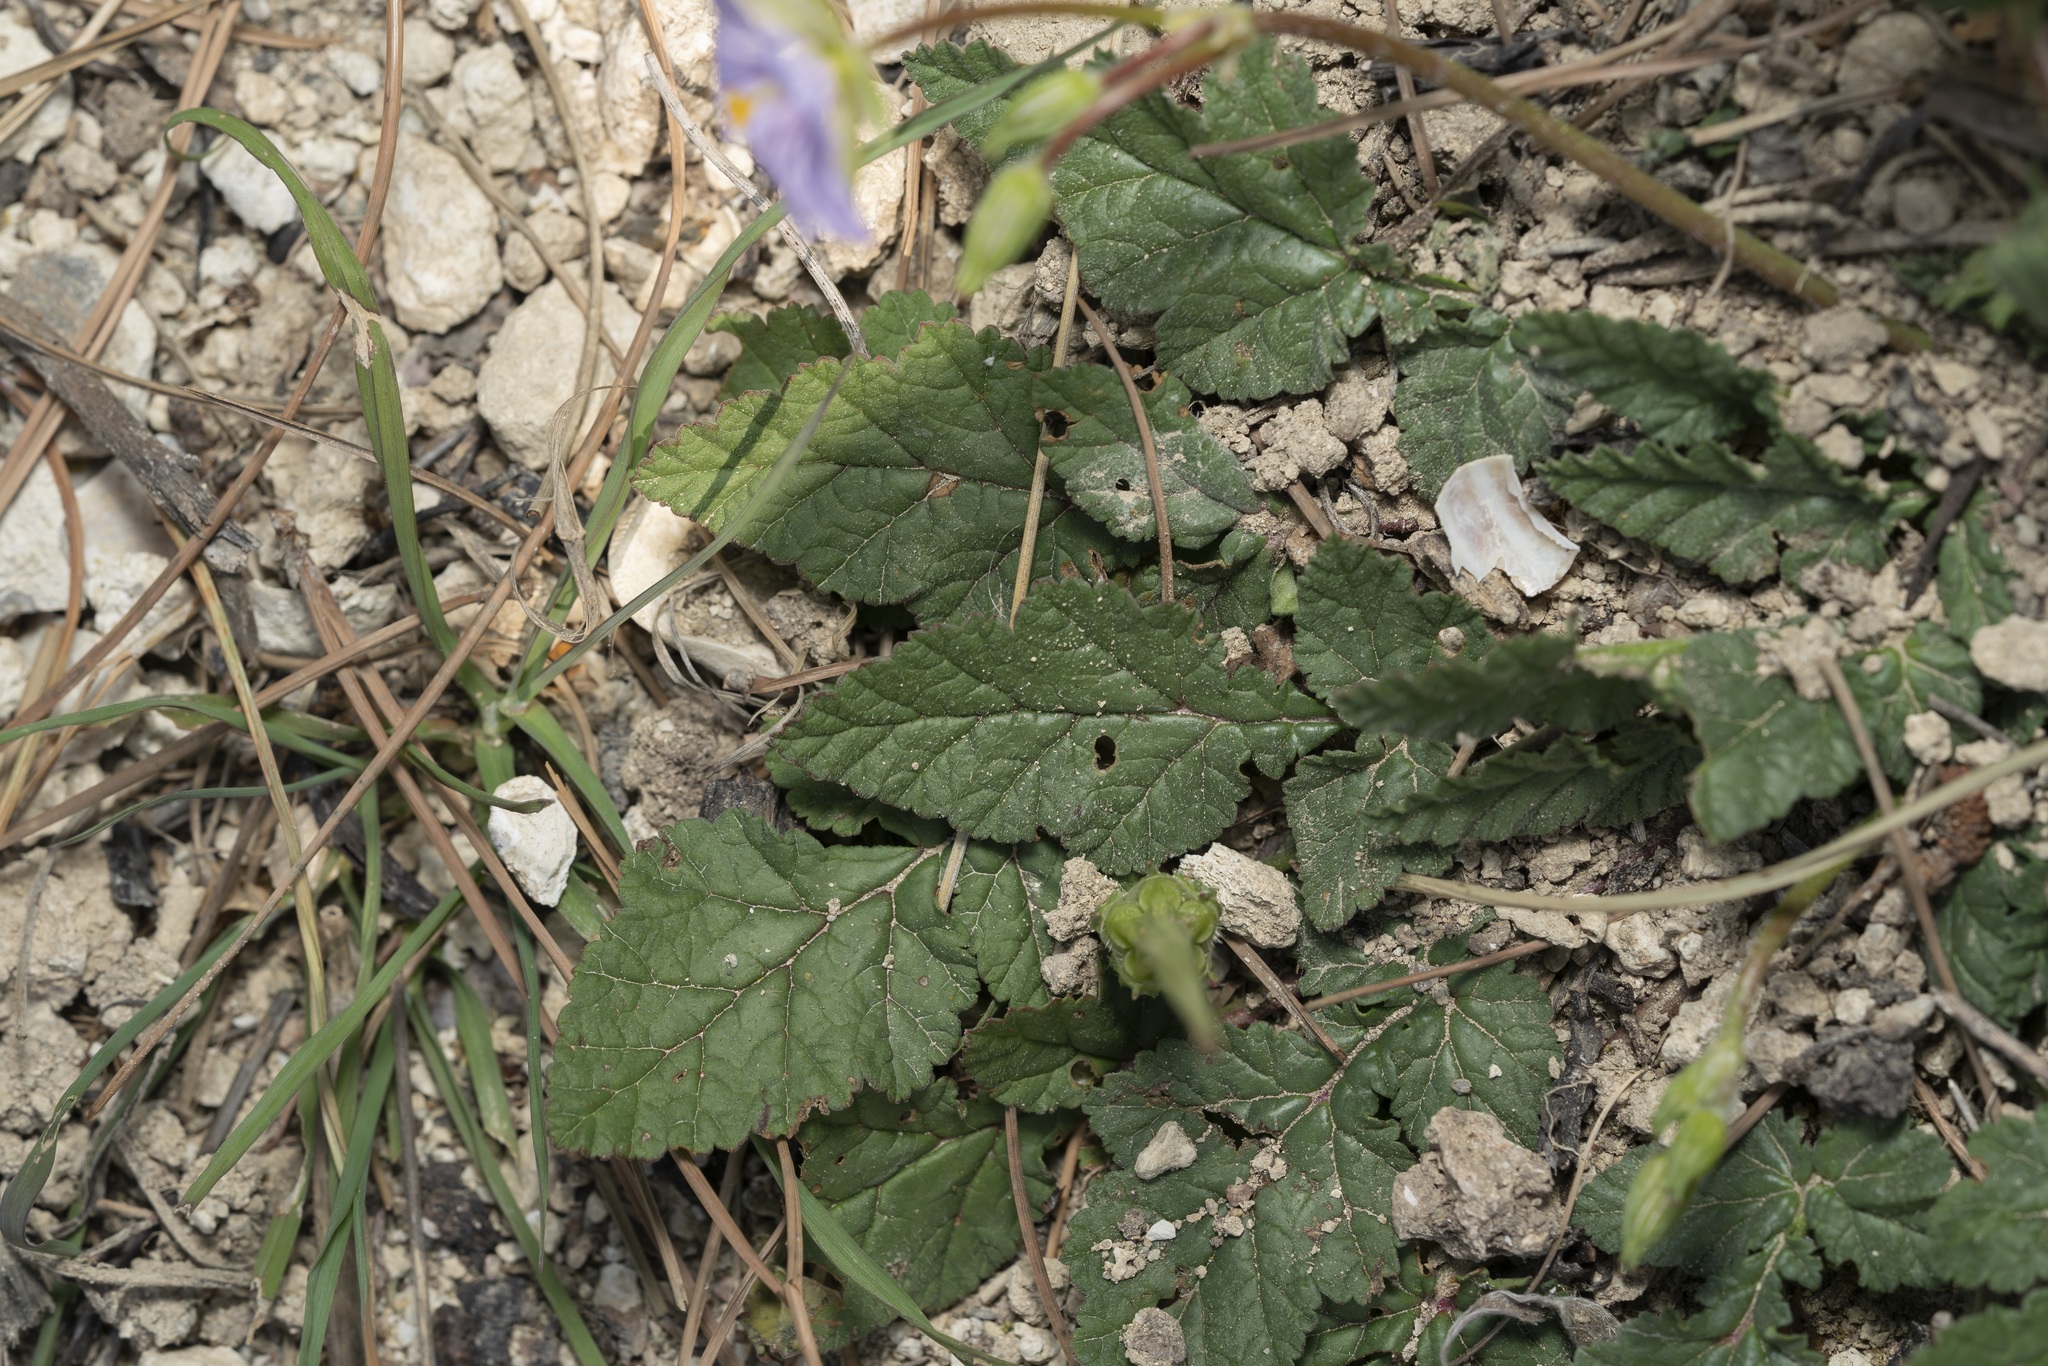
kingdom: Plantae
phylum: Tracheophyta
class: Magnoliopsida
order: Geraniales
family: Geraniaceae
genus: Erodium
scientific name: Erodium gruinum
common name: Iranian stork's bill
